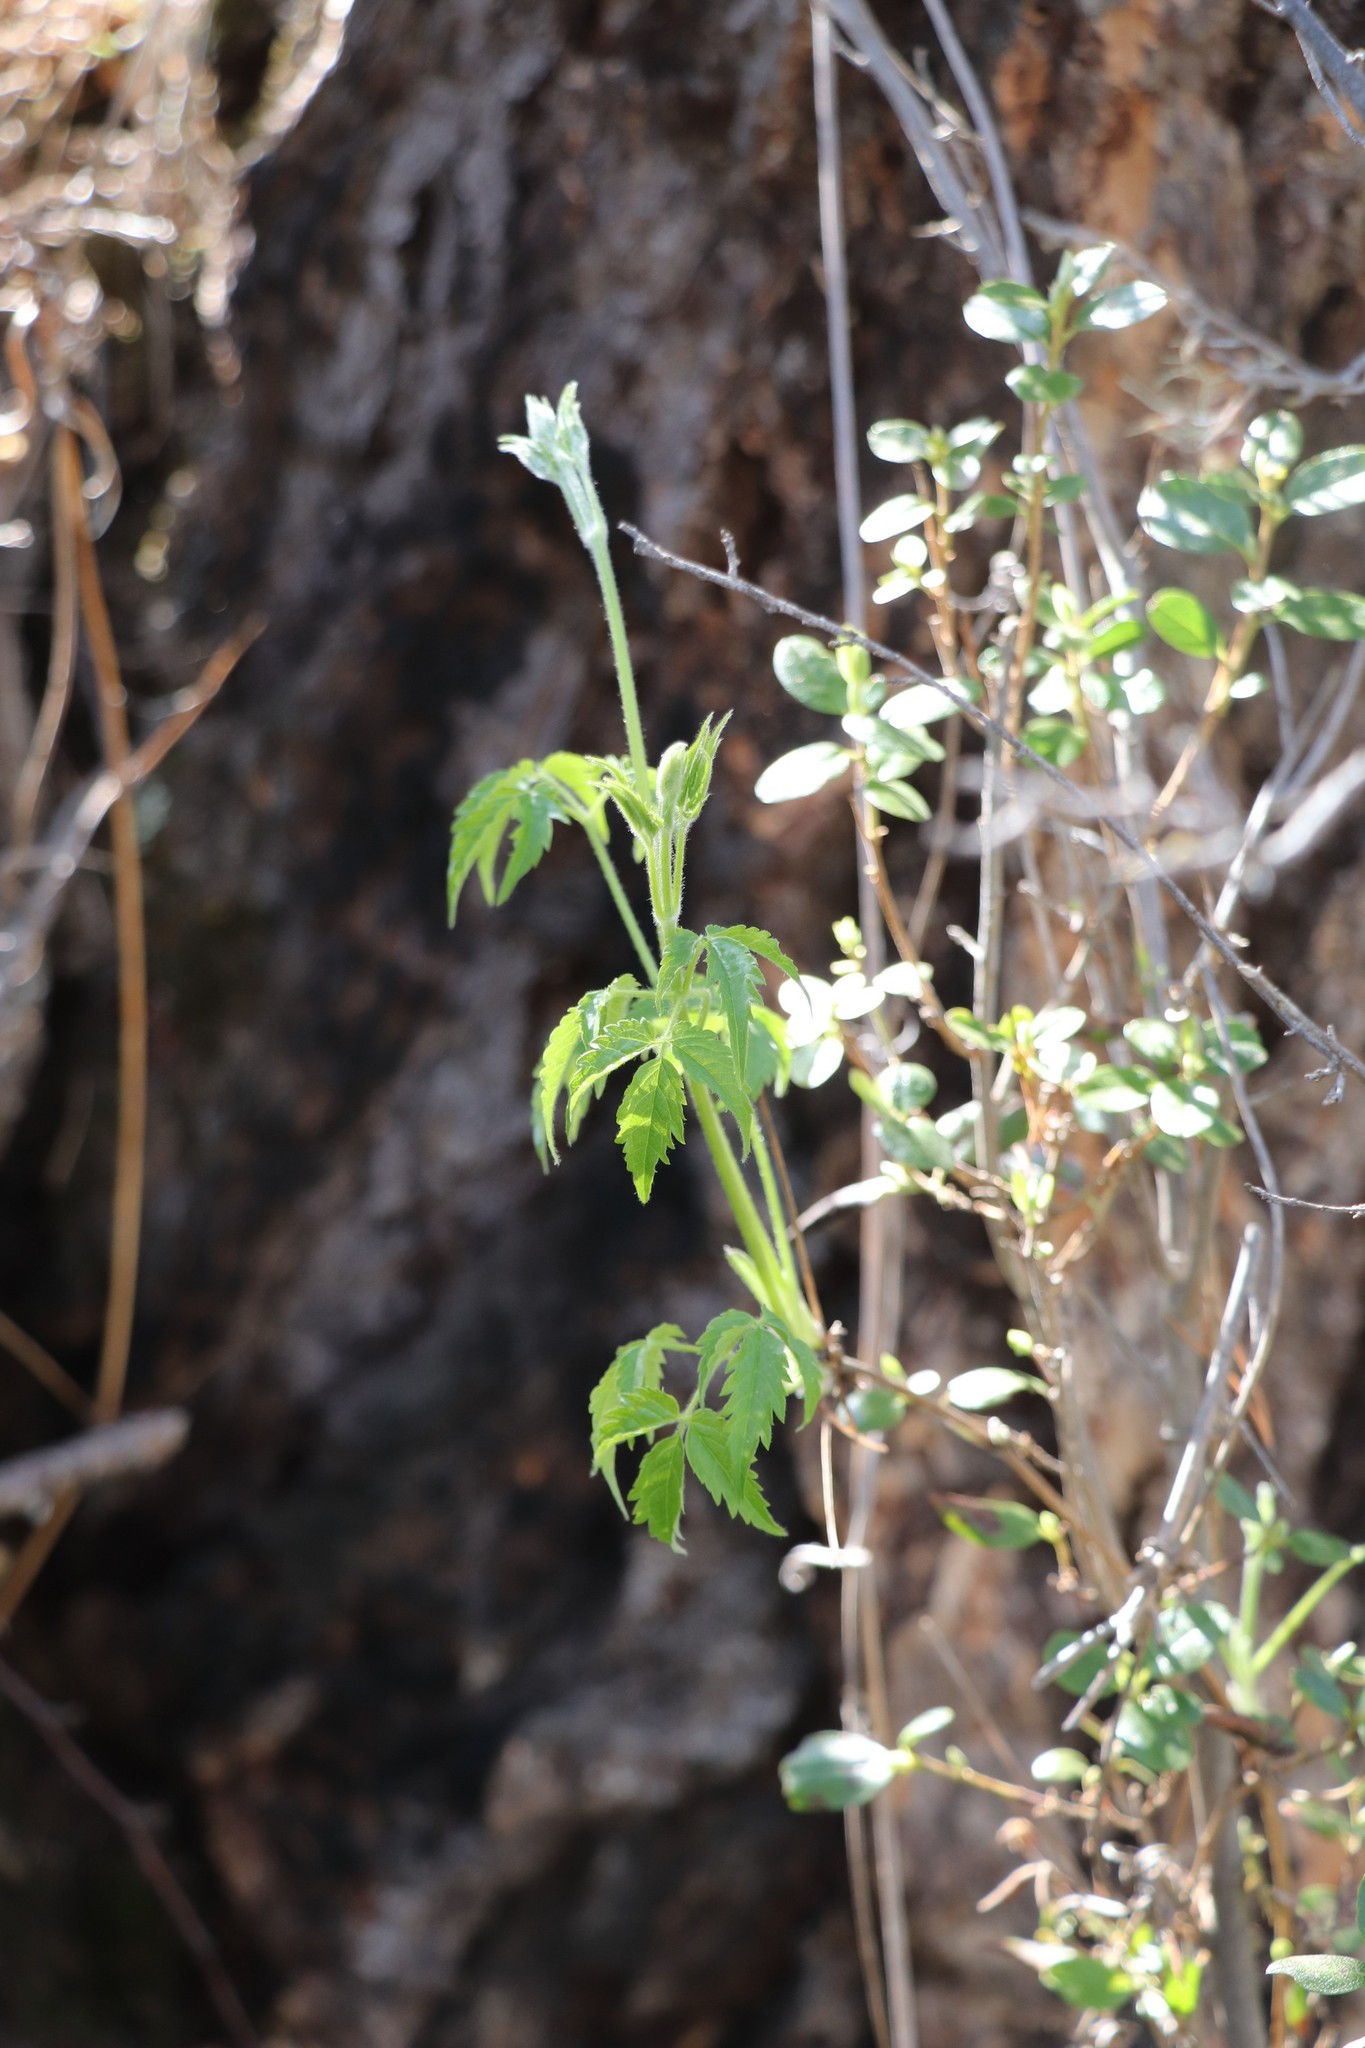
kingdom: Plantae
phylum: Tracheophyta
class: Magnoliopsida
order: Ranunculales
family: Ranunculaceae
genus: Clematis
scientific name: Clematis sibirica
